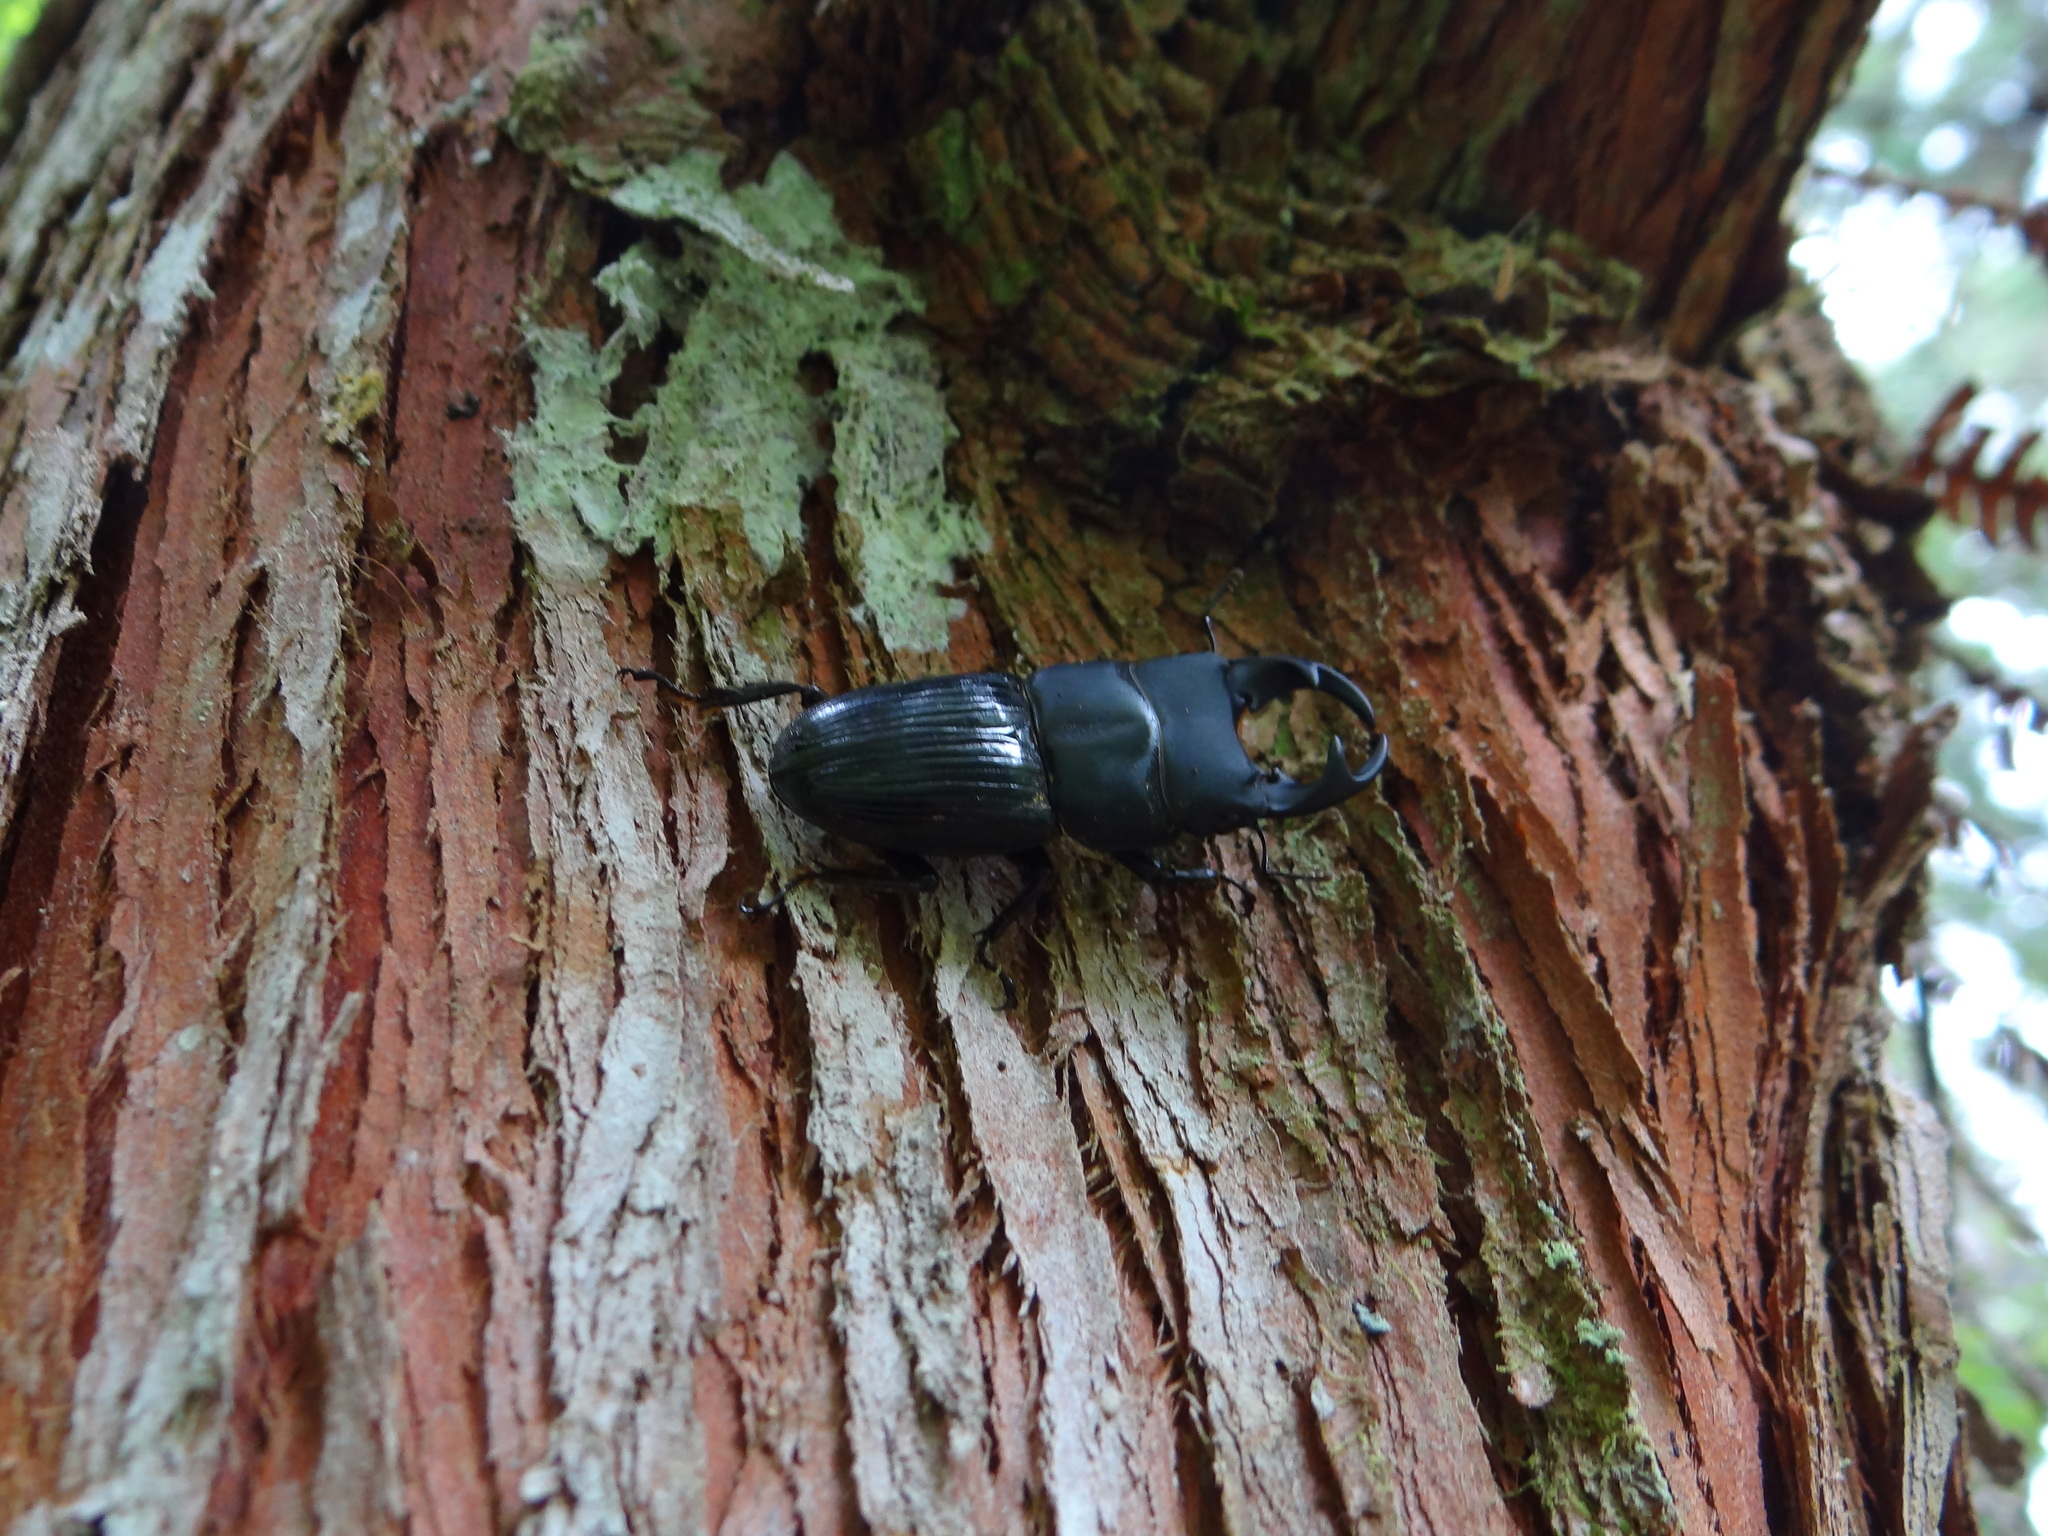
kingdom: Animalia
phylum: Arthropoda
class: Insecta
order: Coleoptera
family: Lucanidae
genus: Aegus
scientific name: Aegus laevicollis
